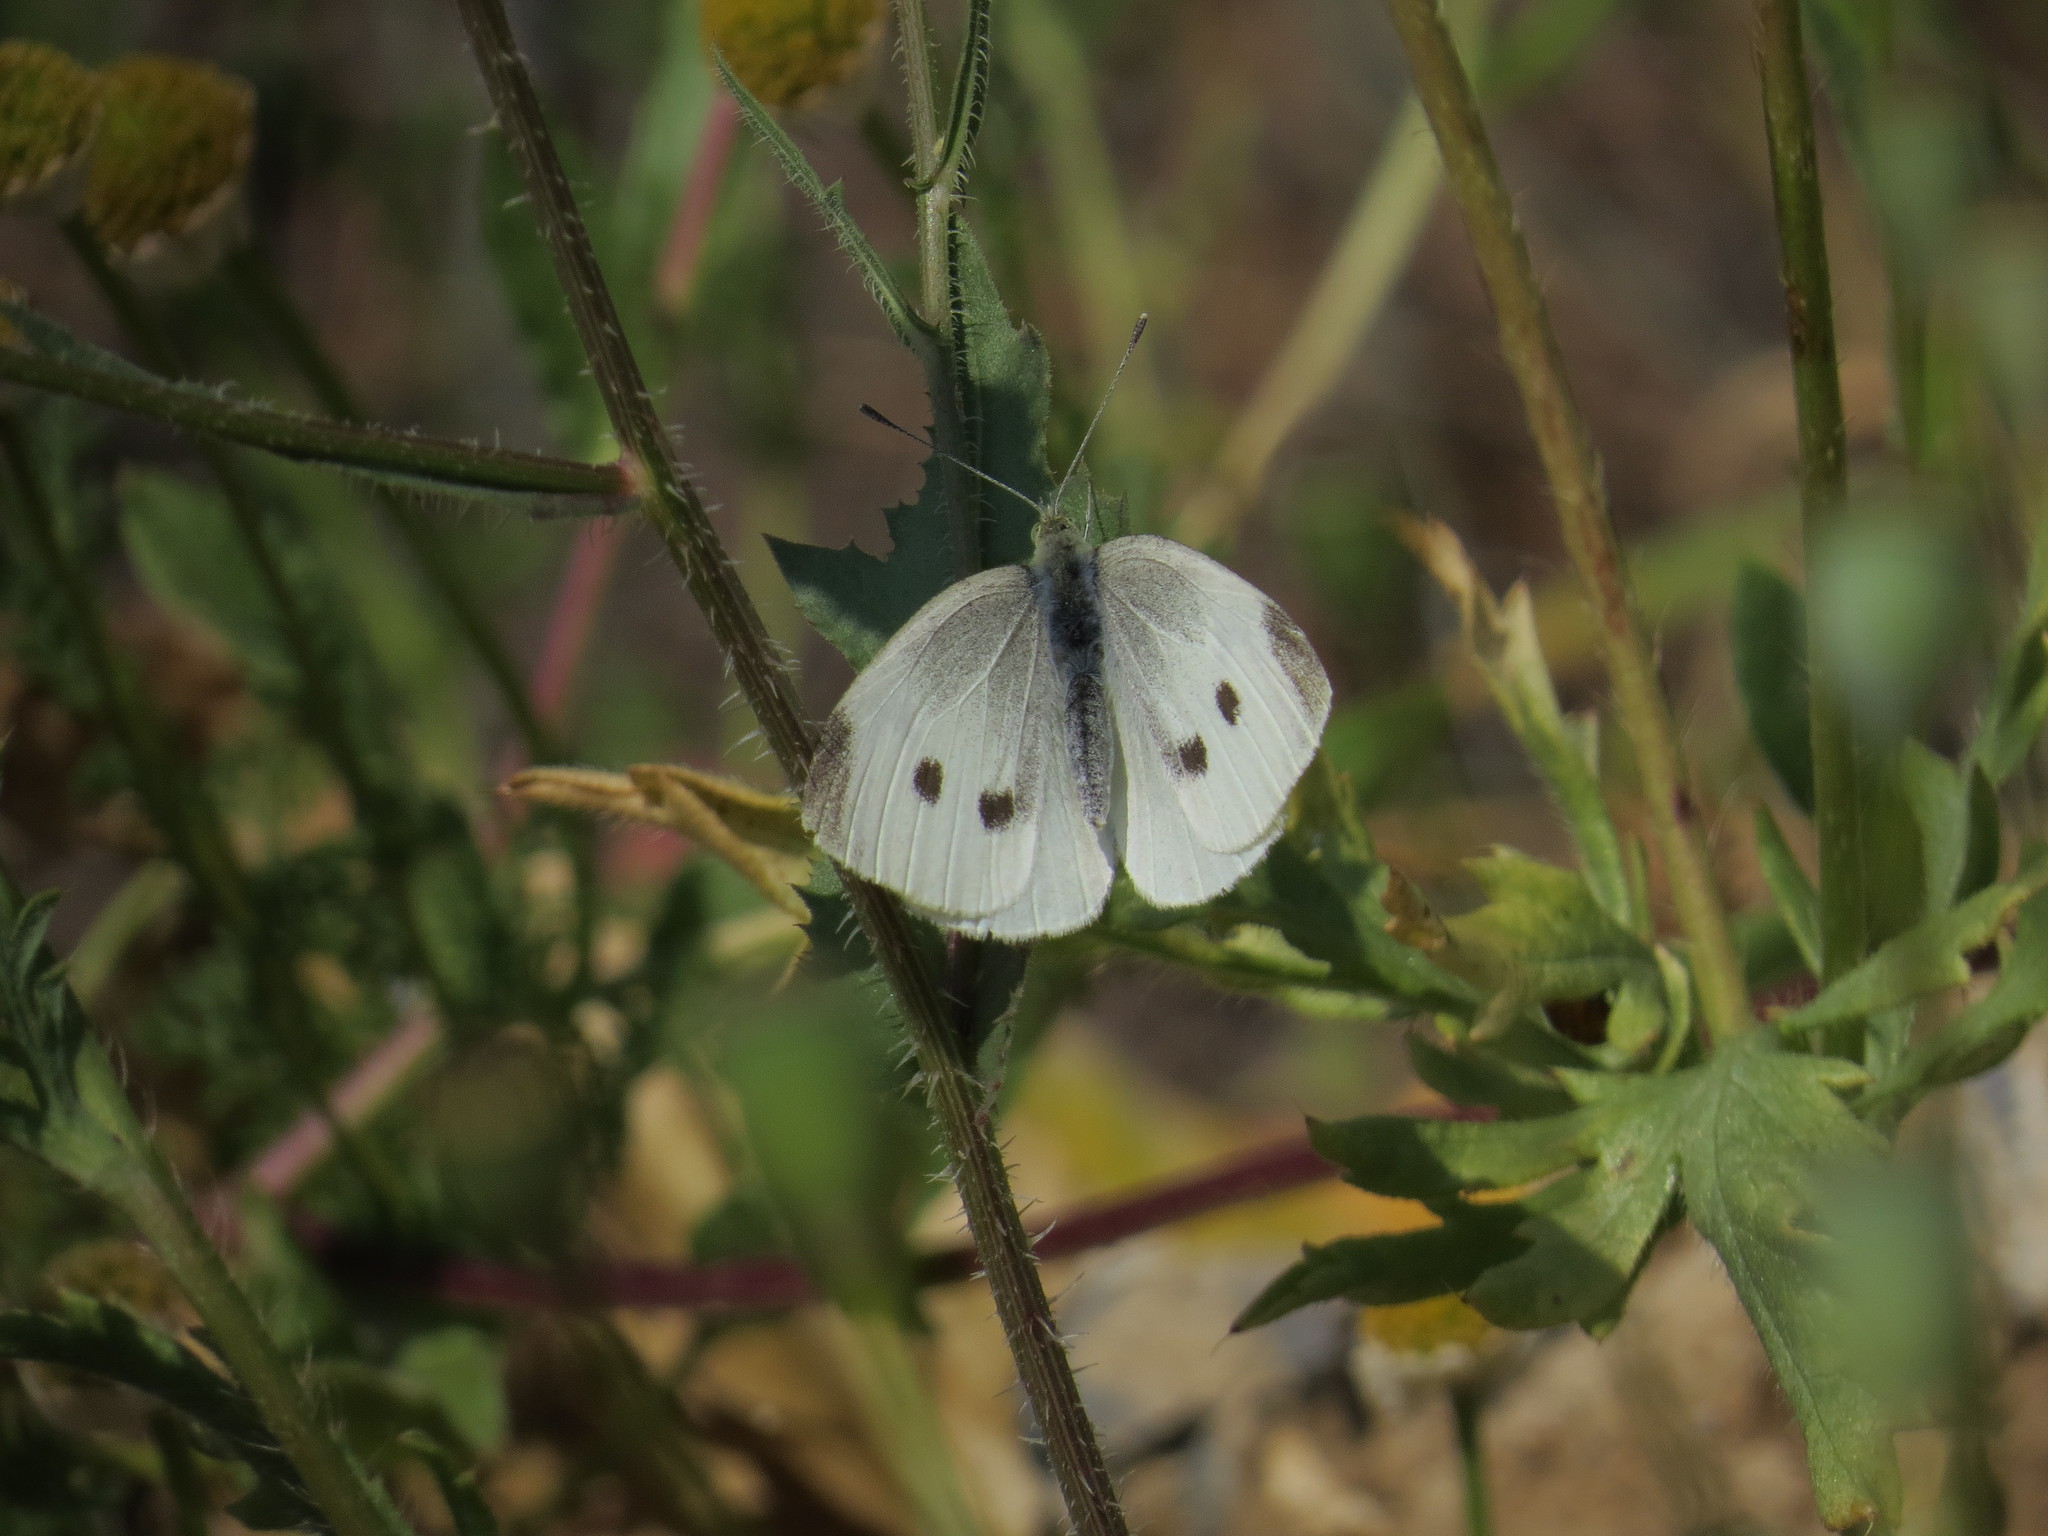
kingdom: Animalia
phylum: Arthropoda
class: Insecta
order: Lepidoptera
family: Pieridae
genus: Pieris
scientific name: Pieris rapae
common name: Small white
